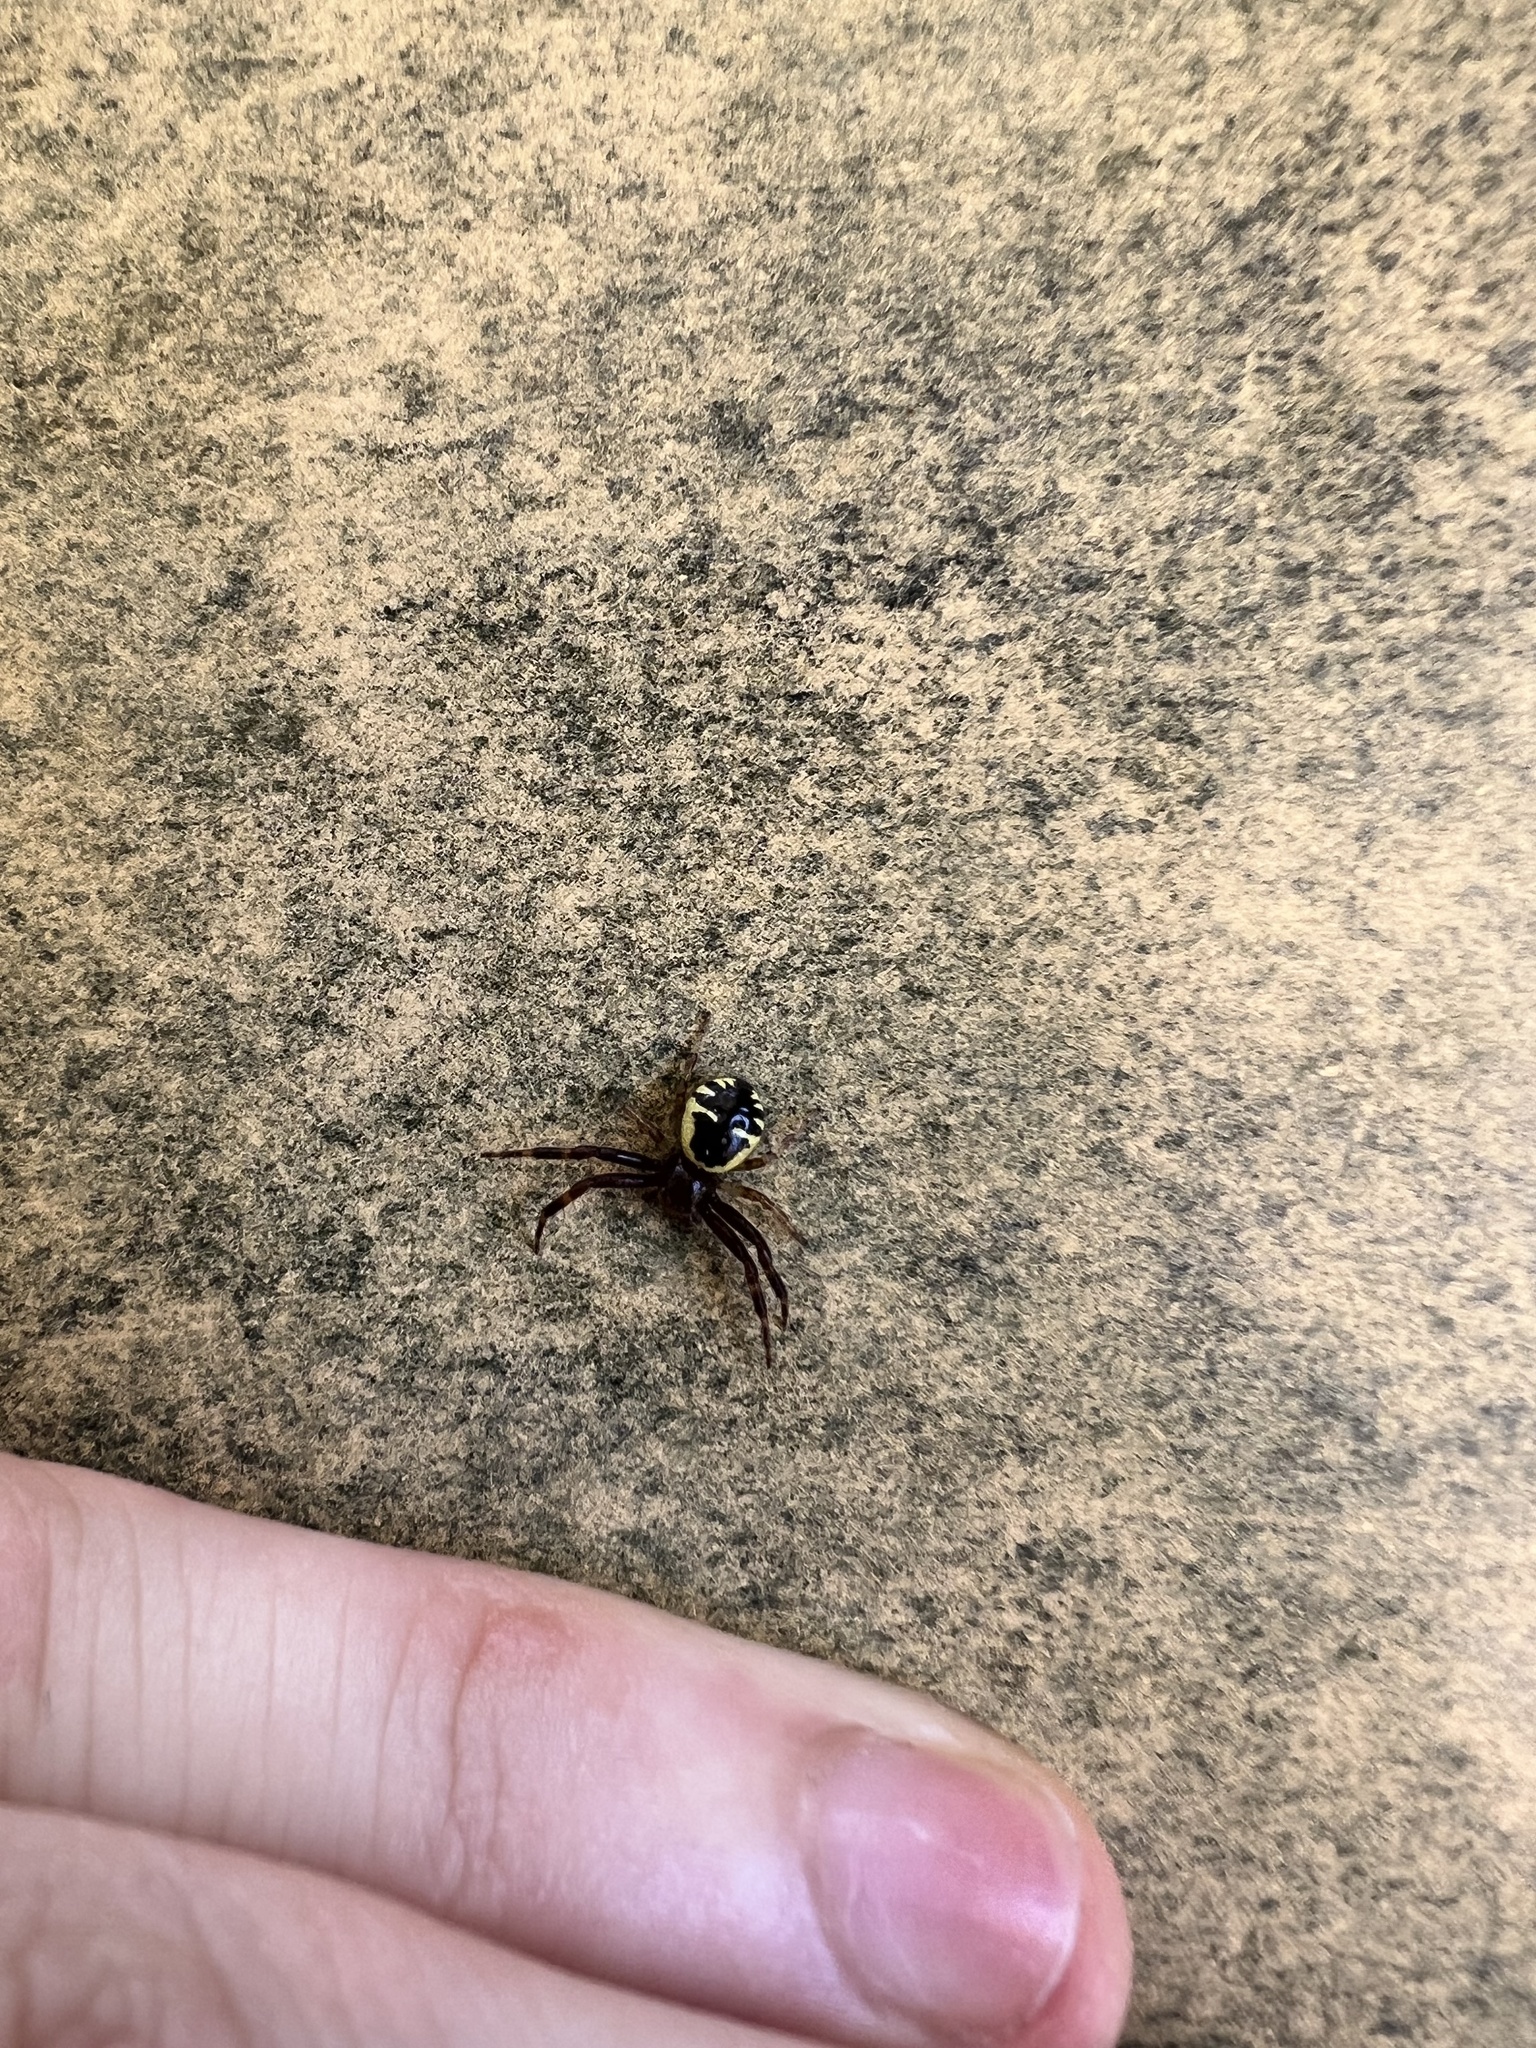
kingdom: Animalia
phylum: Arthropoda
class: Arachnida
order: Araneae
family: Thomisidae
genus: Synema
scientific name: Synema globosum
